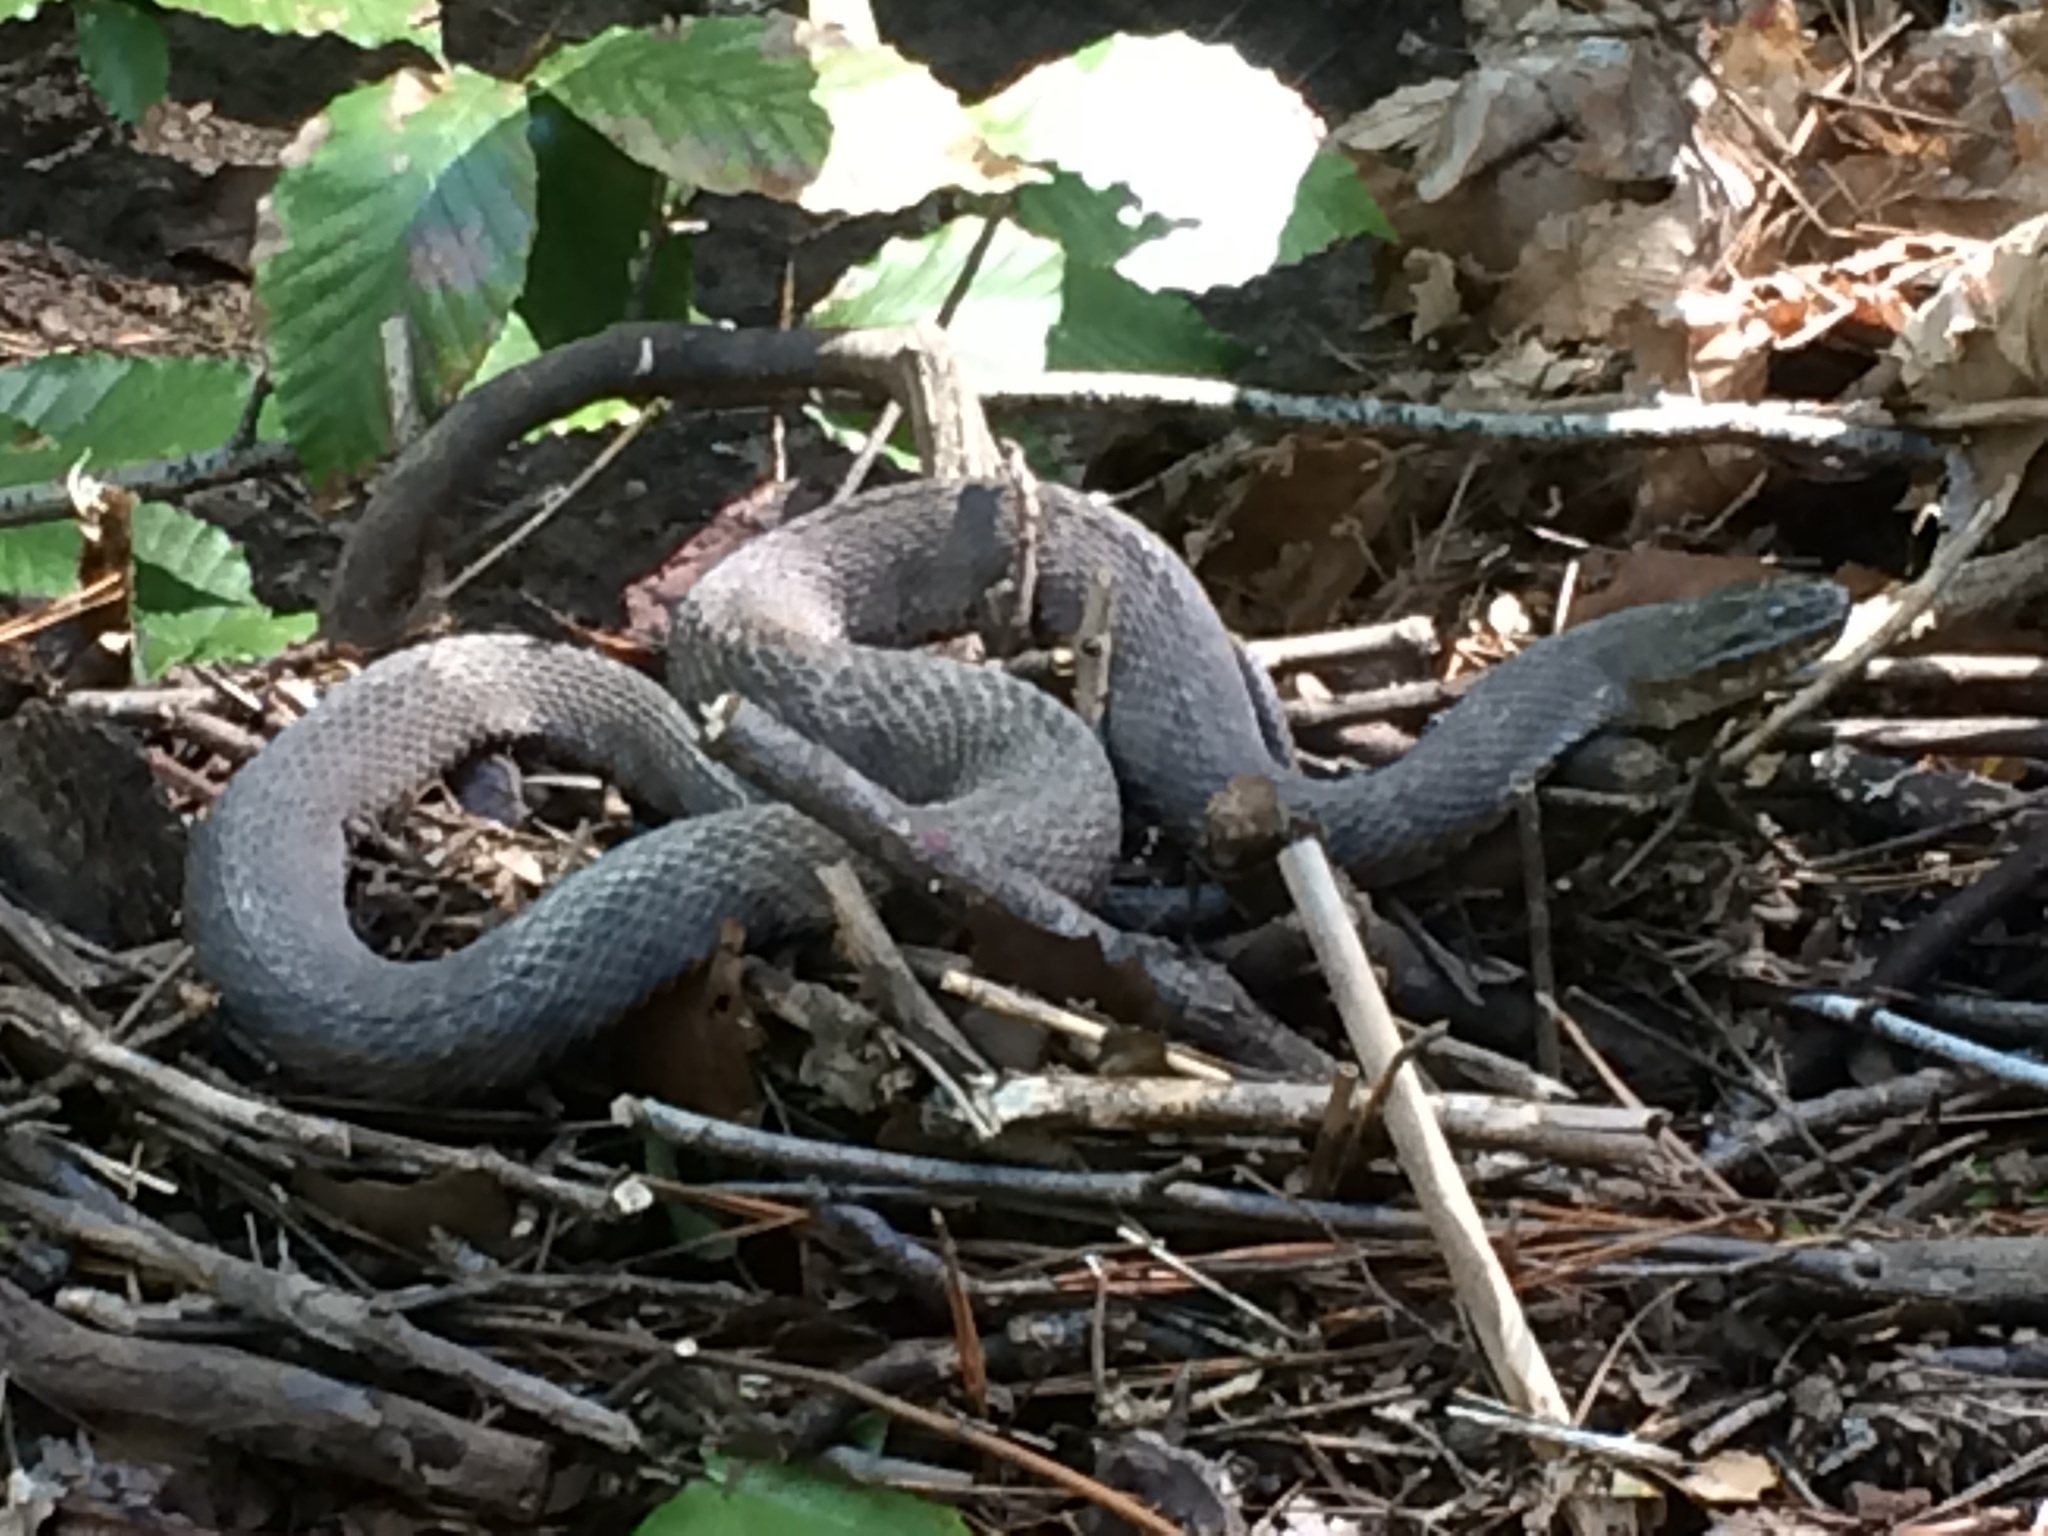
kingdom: Animalia
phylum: Chordata
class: Squamata
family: Colubridae
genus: Nerodia
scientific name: Nerodia sipedon
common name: Northern water snake
